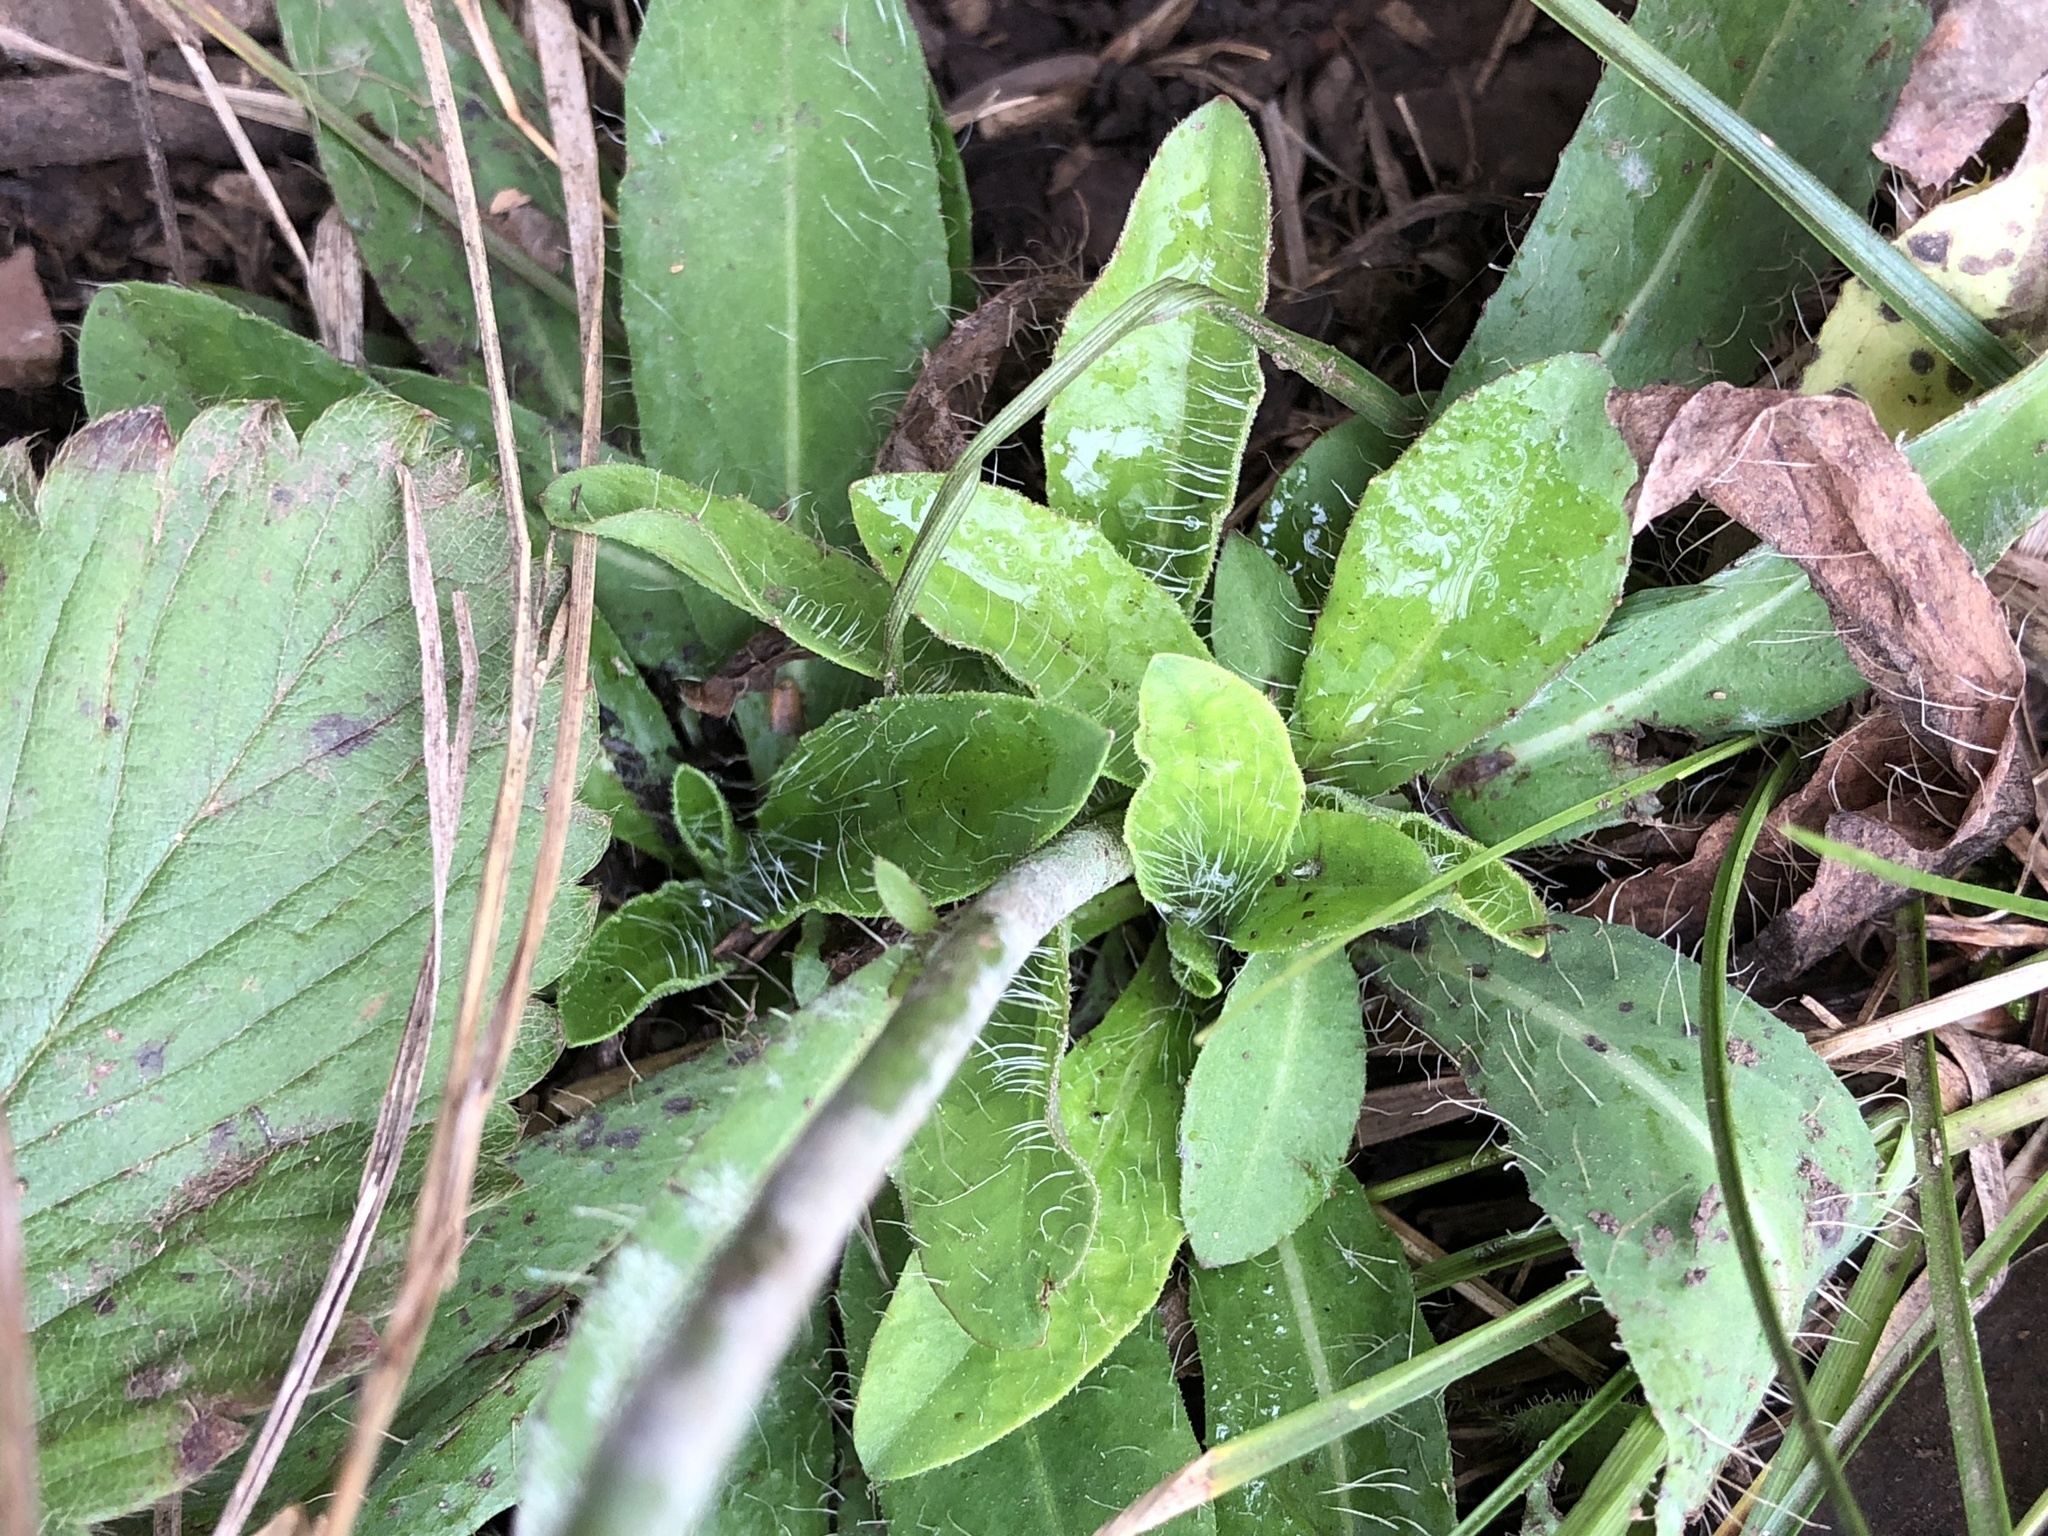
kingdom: Plantae
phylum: Tracheophyta
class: Magnoliopsida
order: Asterales
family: Asteraceae
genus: Pilosella
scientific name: Pilosella caespitosa
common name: Yellow fox-and-cubs
